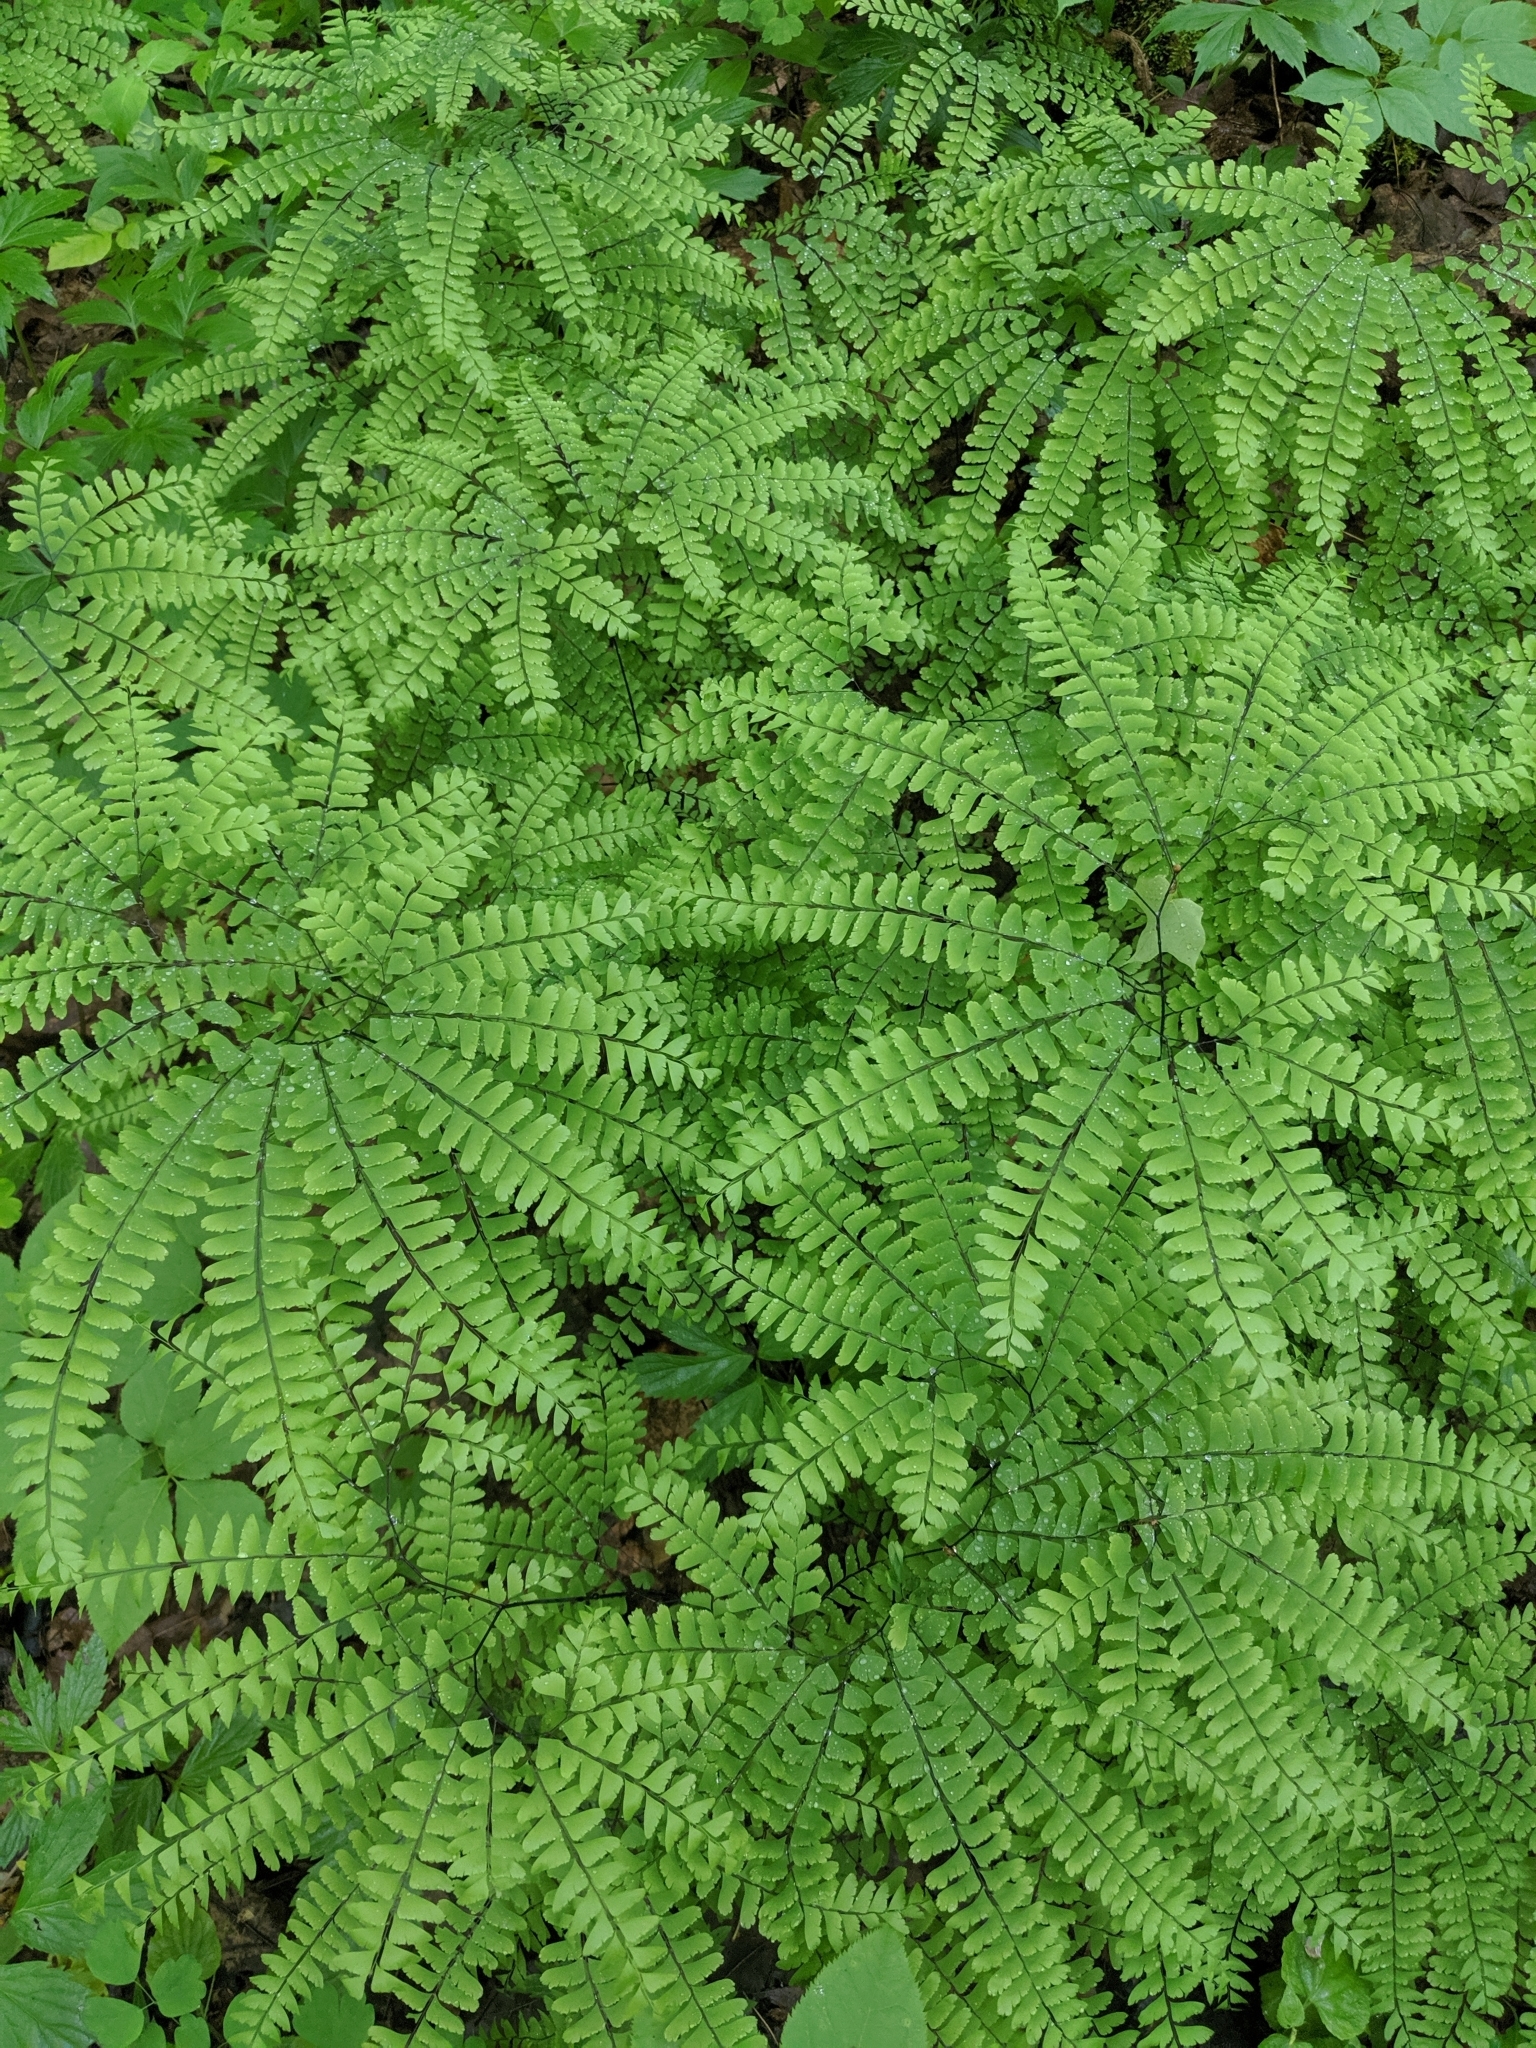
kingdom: Plantae
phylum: Tracheophyta
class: Polypodiopsida
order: Polypodiales
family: Pteridaceae
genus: Adiantum
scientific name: Adiantum pedatum
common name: Five-finger fern
